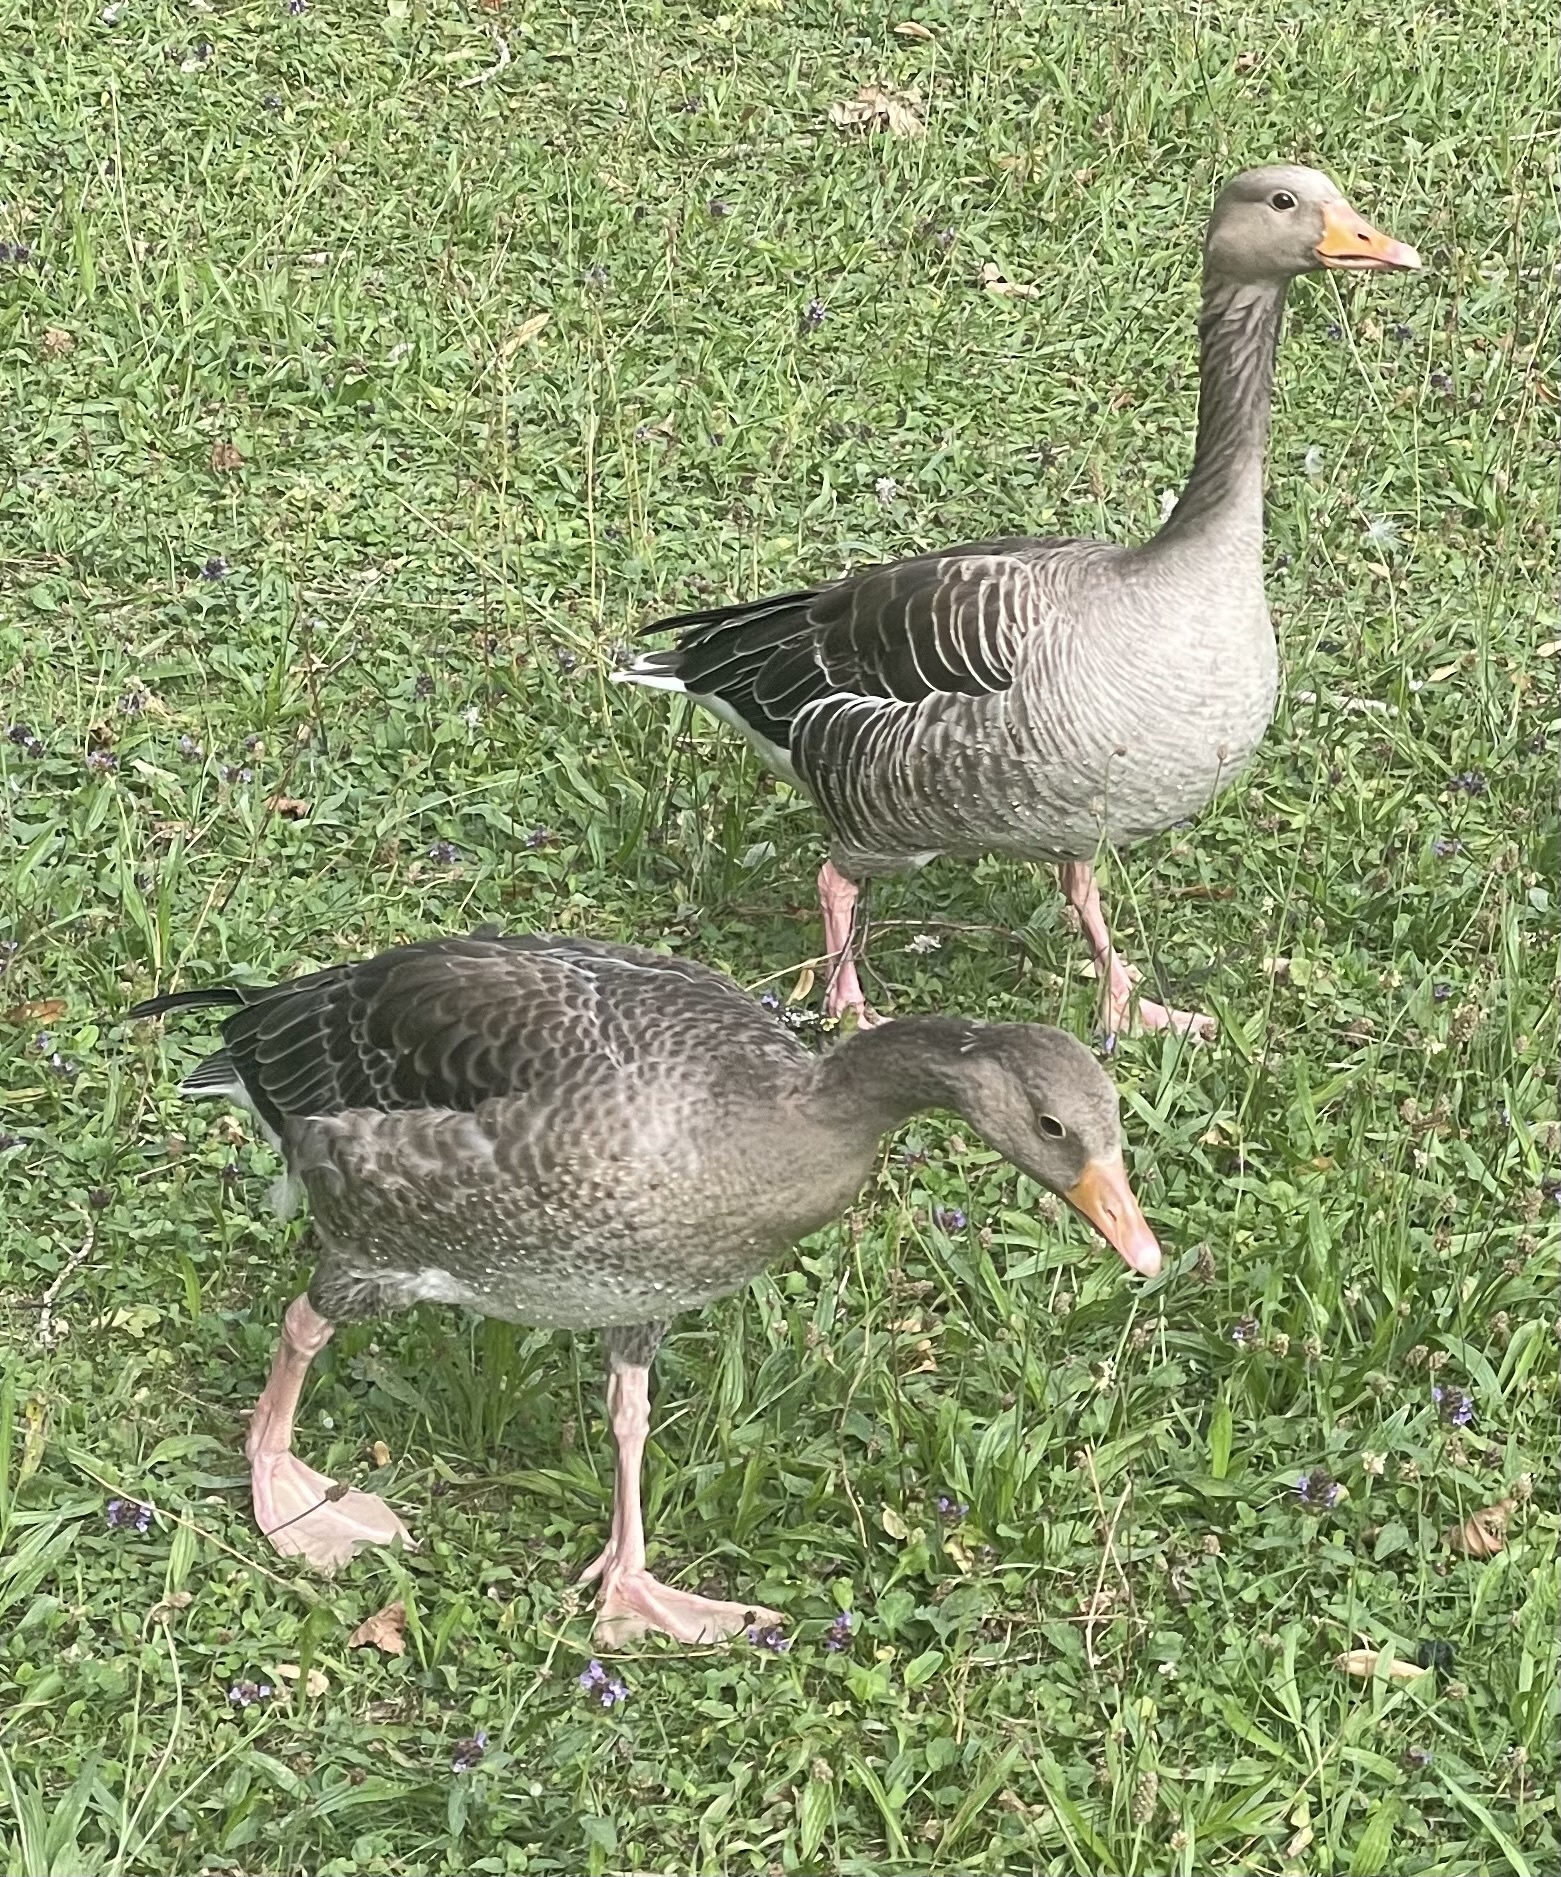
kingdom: Animalia
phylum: Chordata
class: Aves
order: Anseriformes
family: Anatidae
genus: Anser
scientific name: Anser anser
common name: Greylag goose
